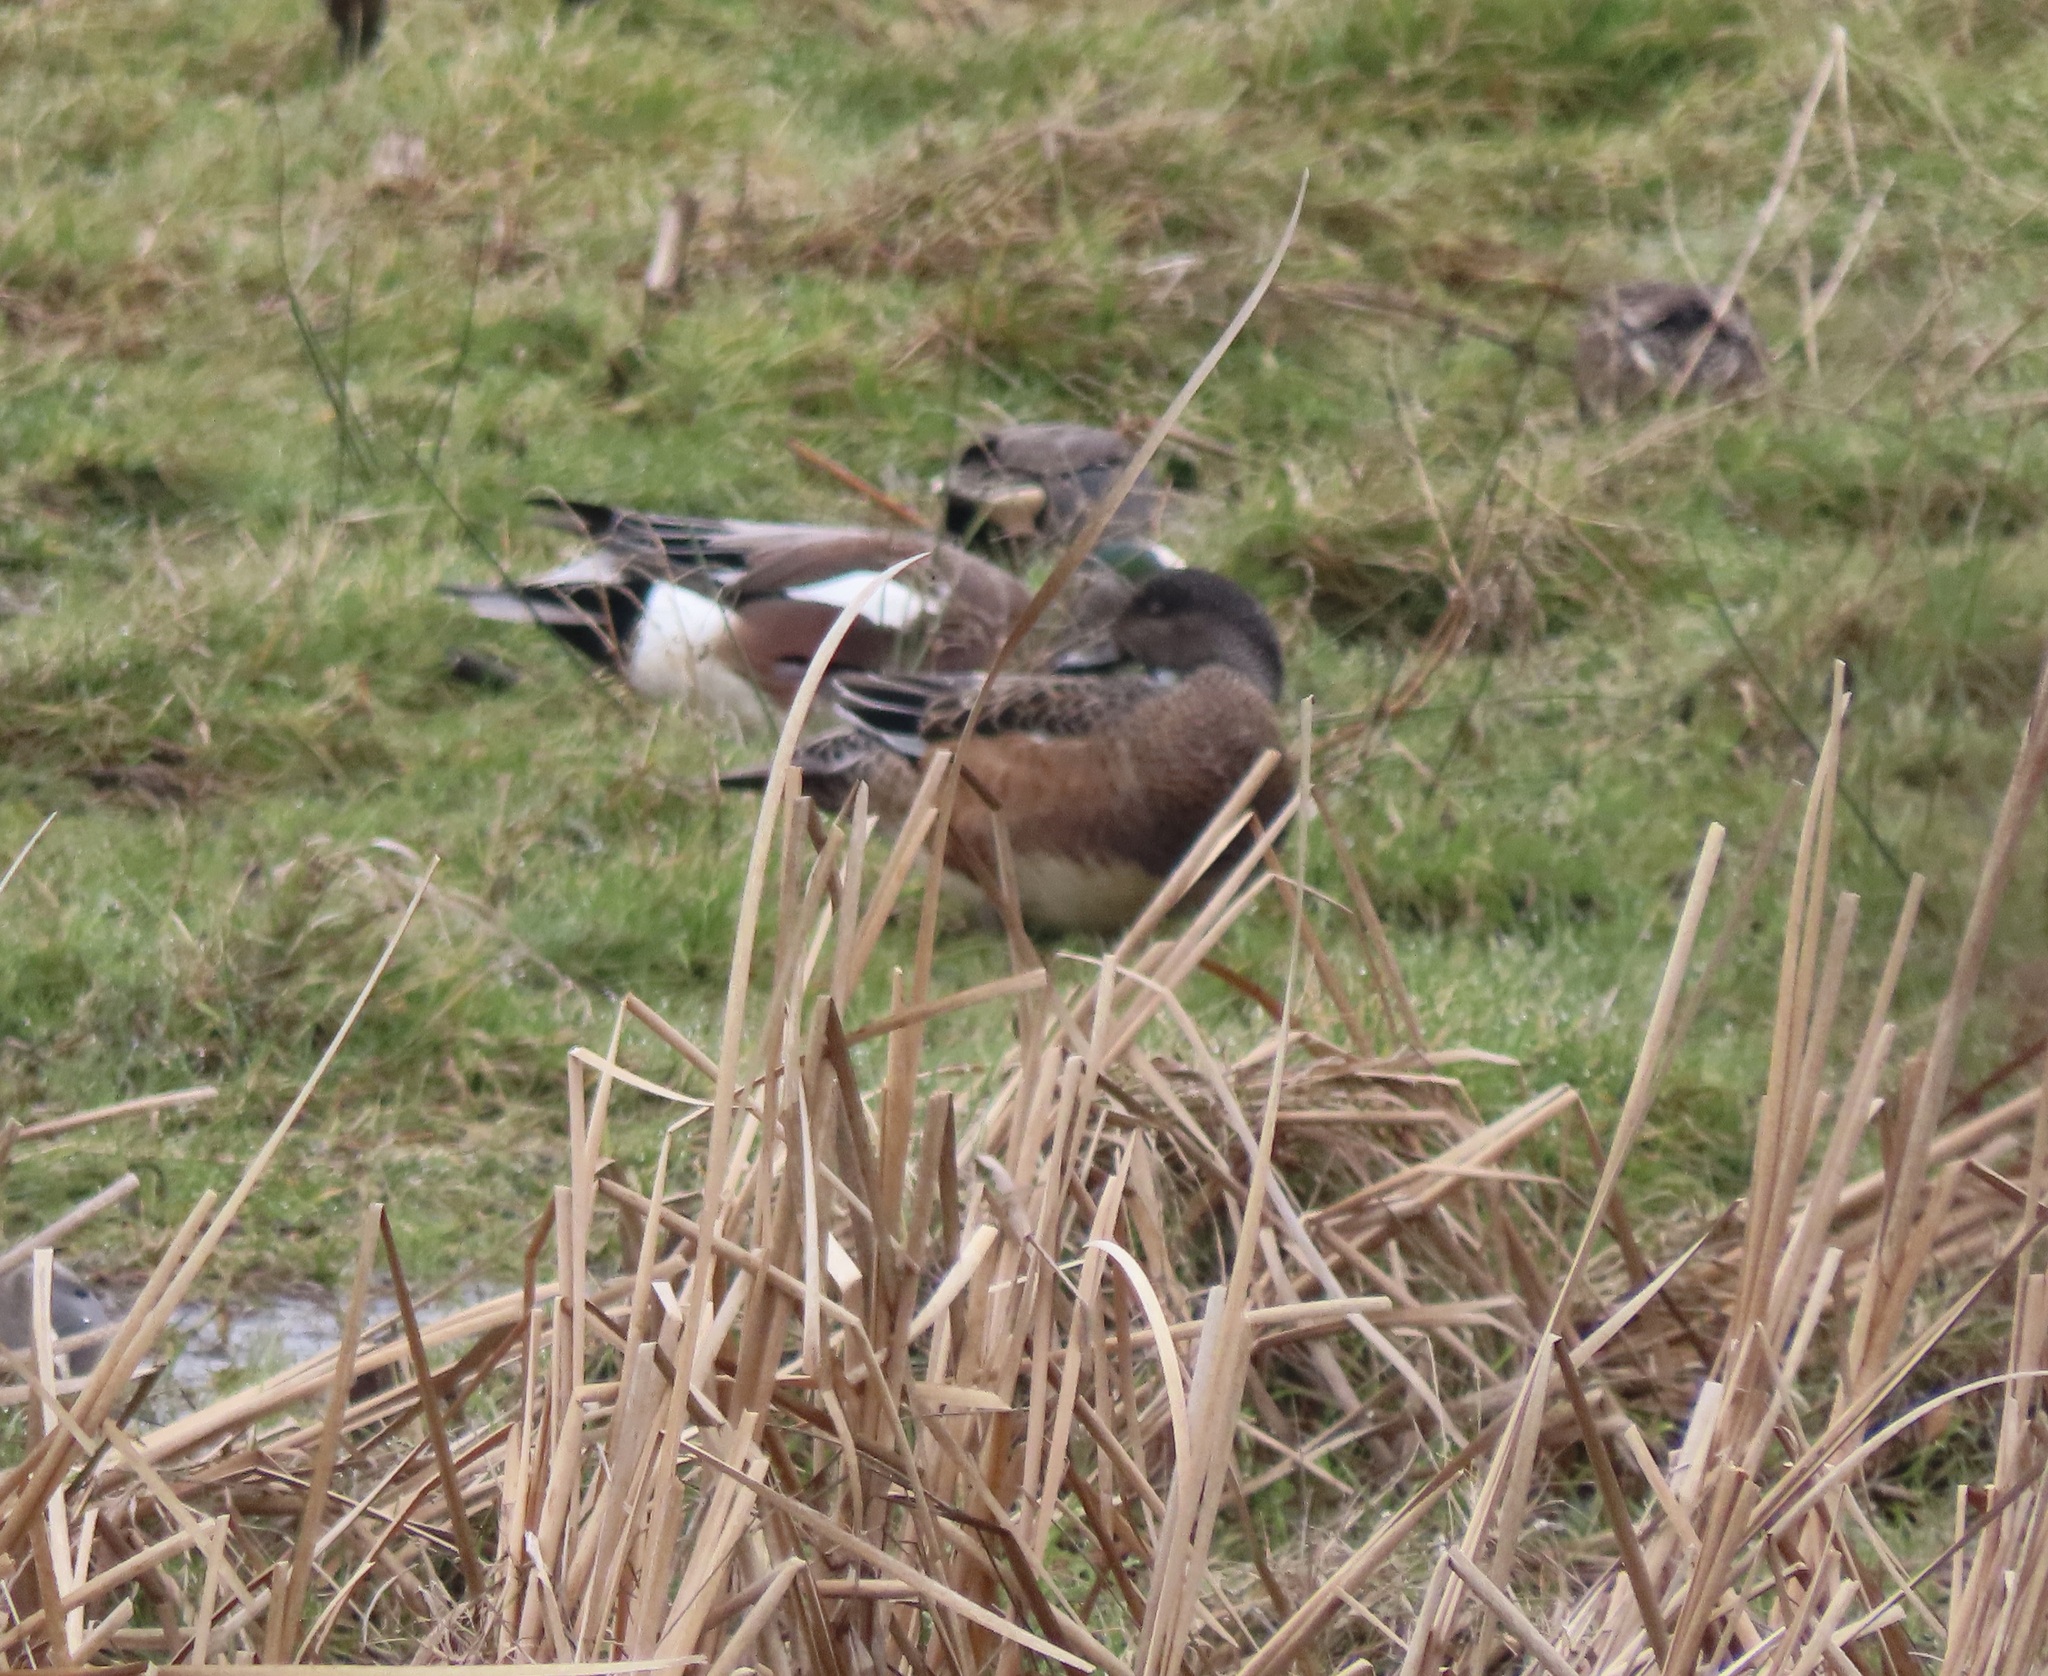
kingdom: Animalia
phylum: Chordata
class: Aves
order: Anseriformes
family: Anatidae
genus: Mareca
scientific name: Mareca americana
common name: American wigeon
